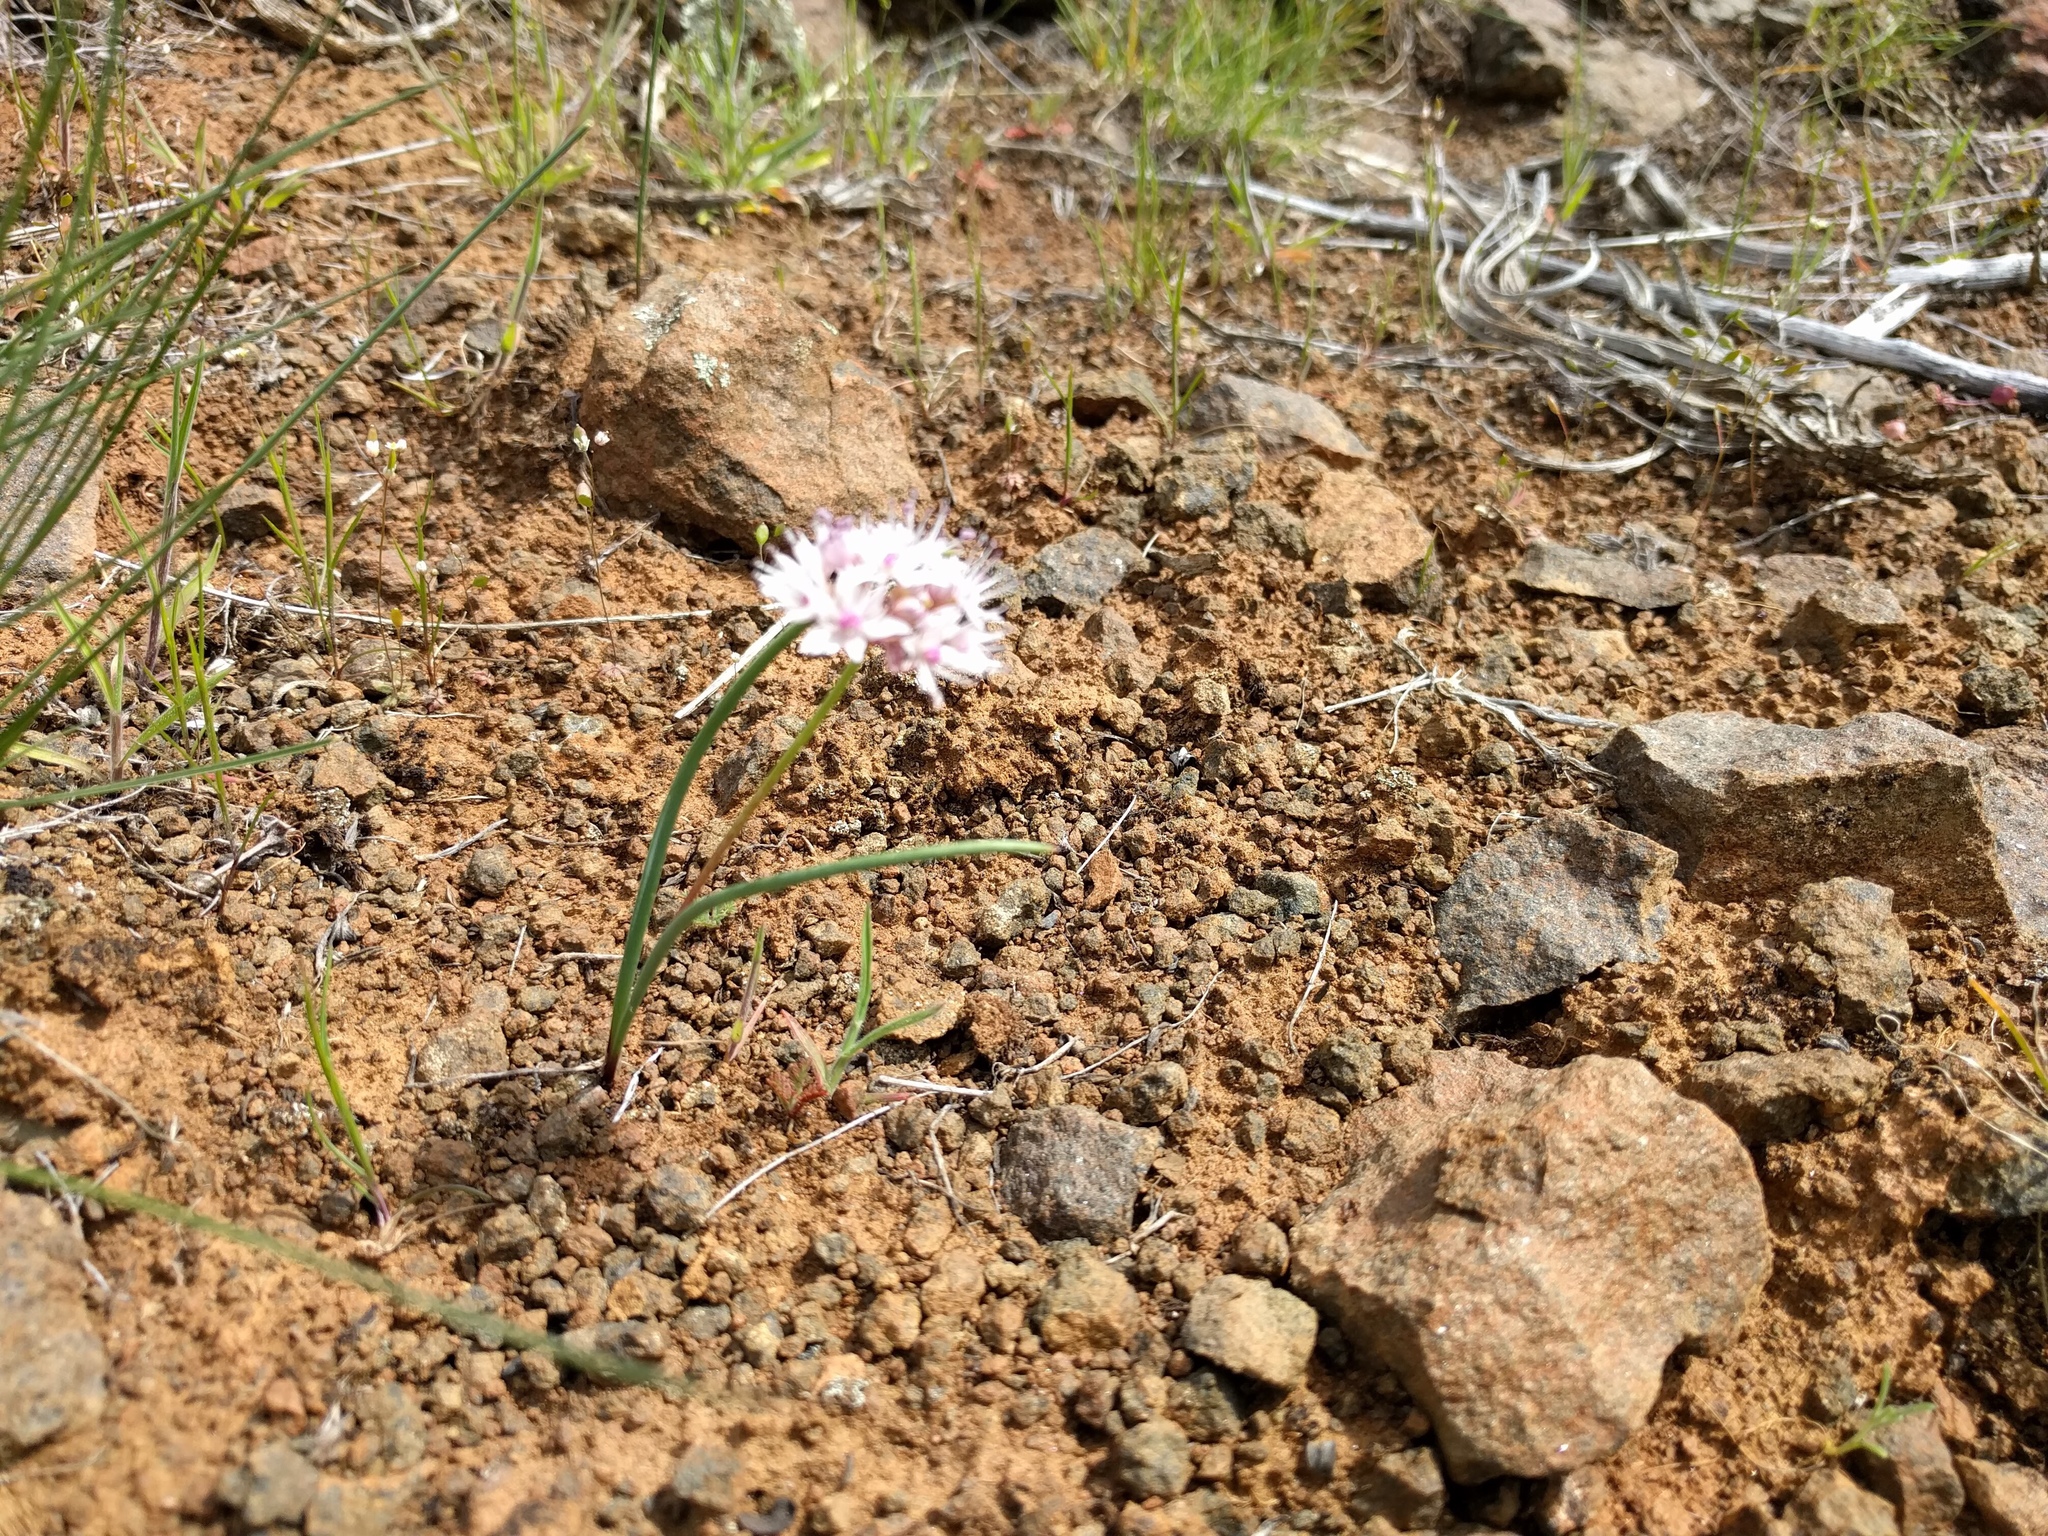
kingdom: Plantae
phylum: Tracheophyta
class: Liliopsida
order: Asparagales
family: Amaryllidaceae
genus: Allium
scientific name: Allium macrum
